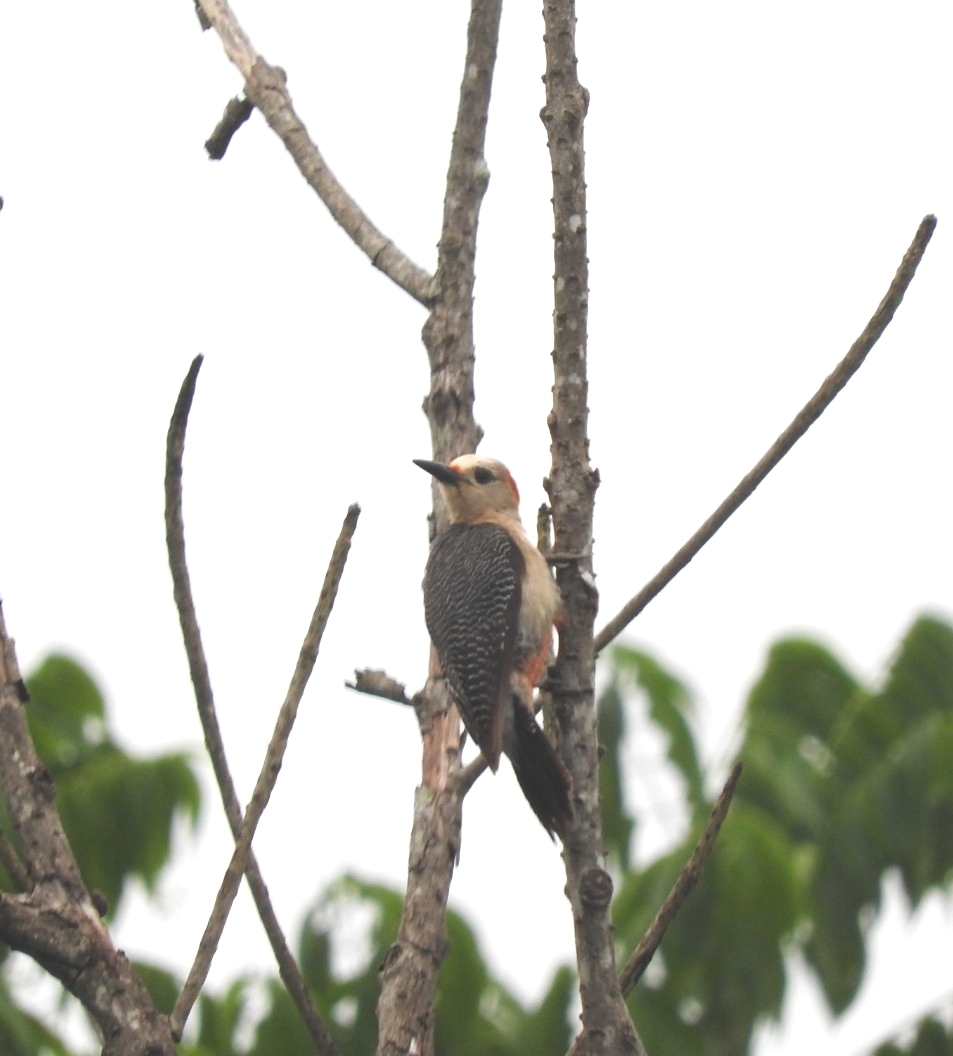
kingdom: Animalia
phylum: Chordata
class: Aves
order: Piciformes
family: Picidae
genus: Melanerpes
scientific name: Melanerpes aurifrons
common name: Golden-fronted woodpecker
